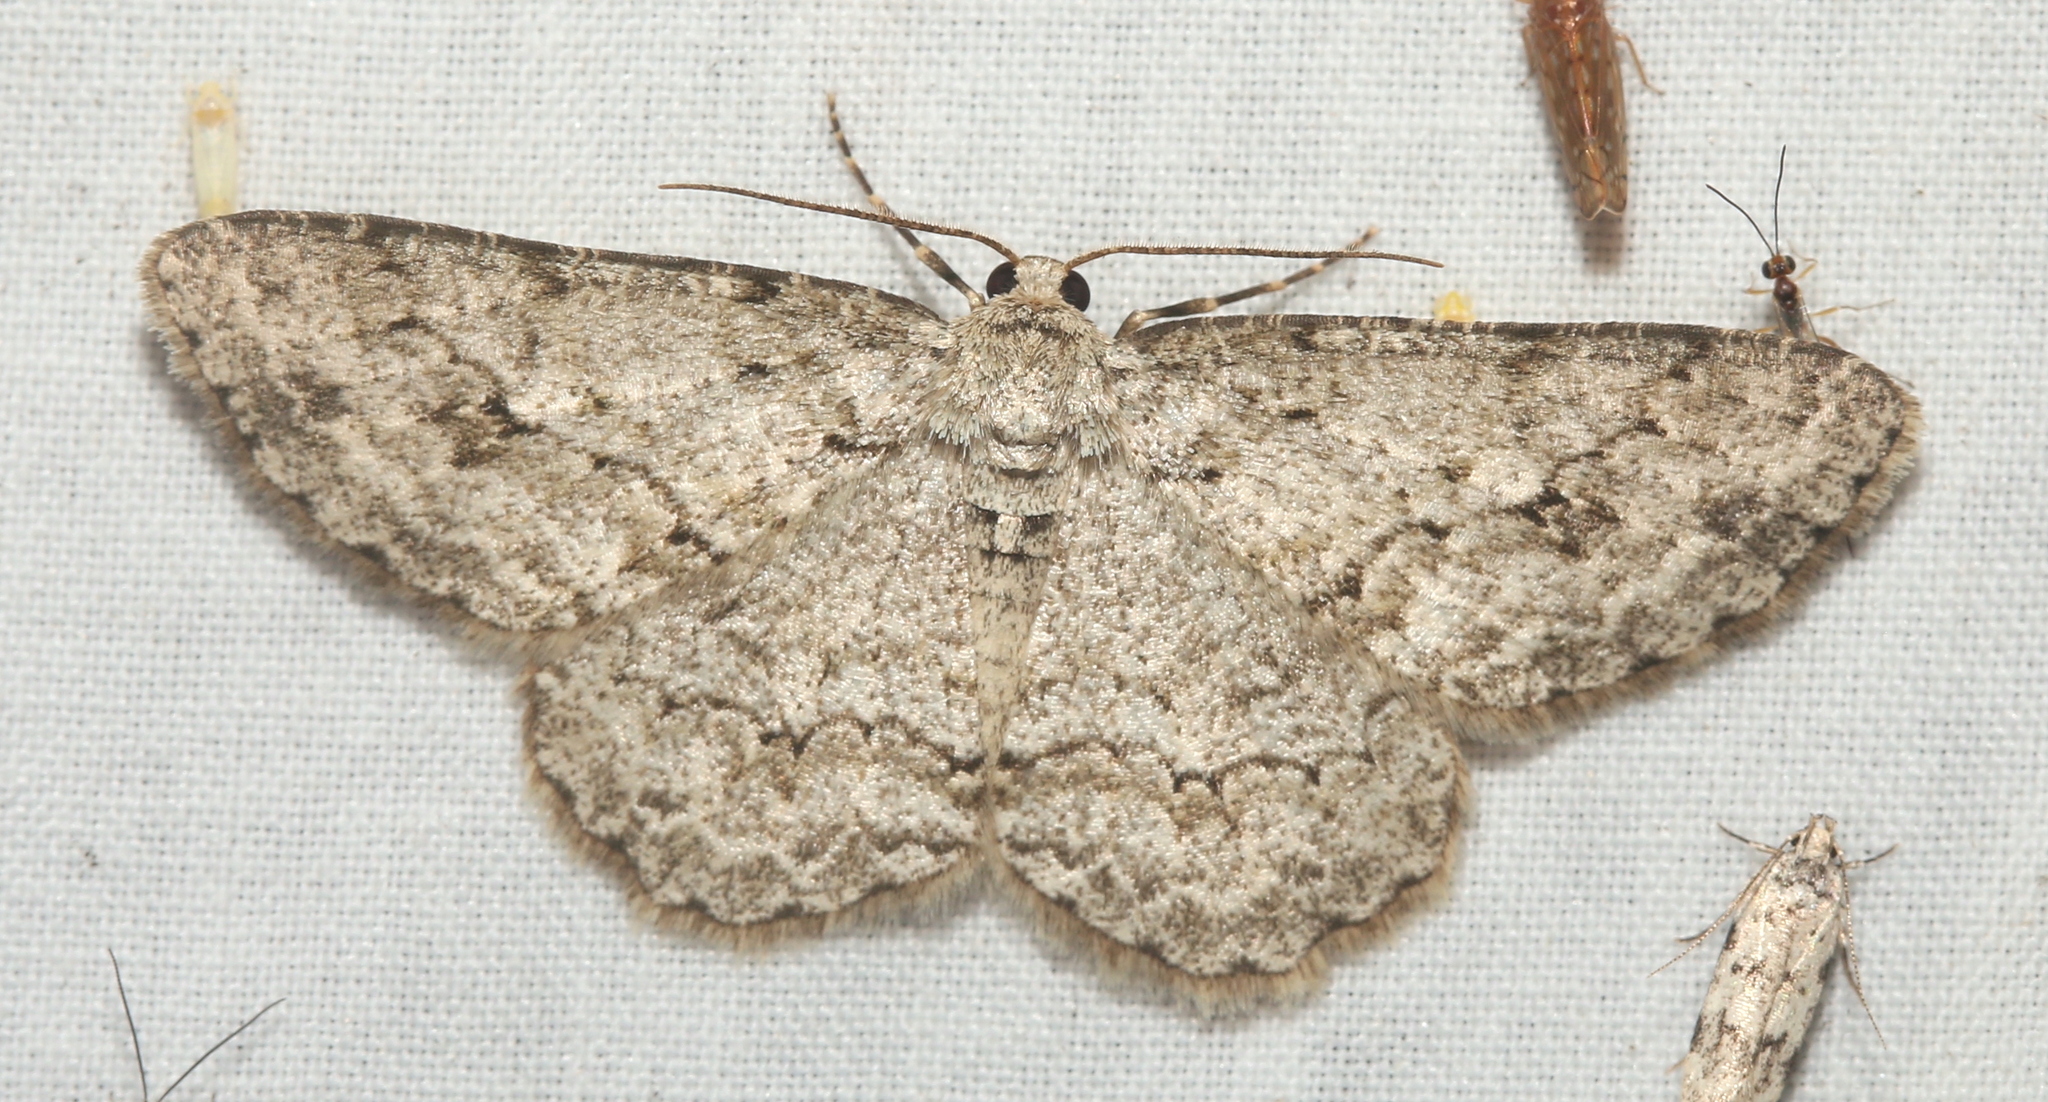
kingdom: Animalia
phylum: Arthropoda
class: Insecta
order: Lepidoptera
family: Geometridae
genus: Ectropis
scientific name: Ectropis crepuscularia
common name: Engrailed
